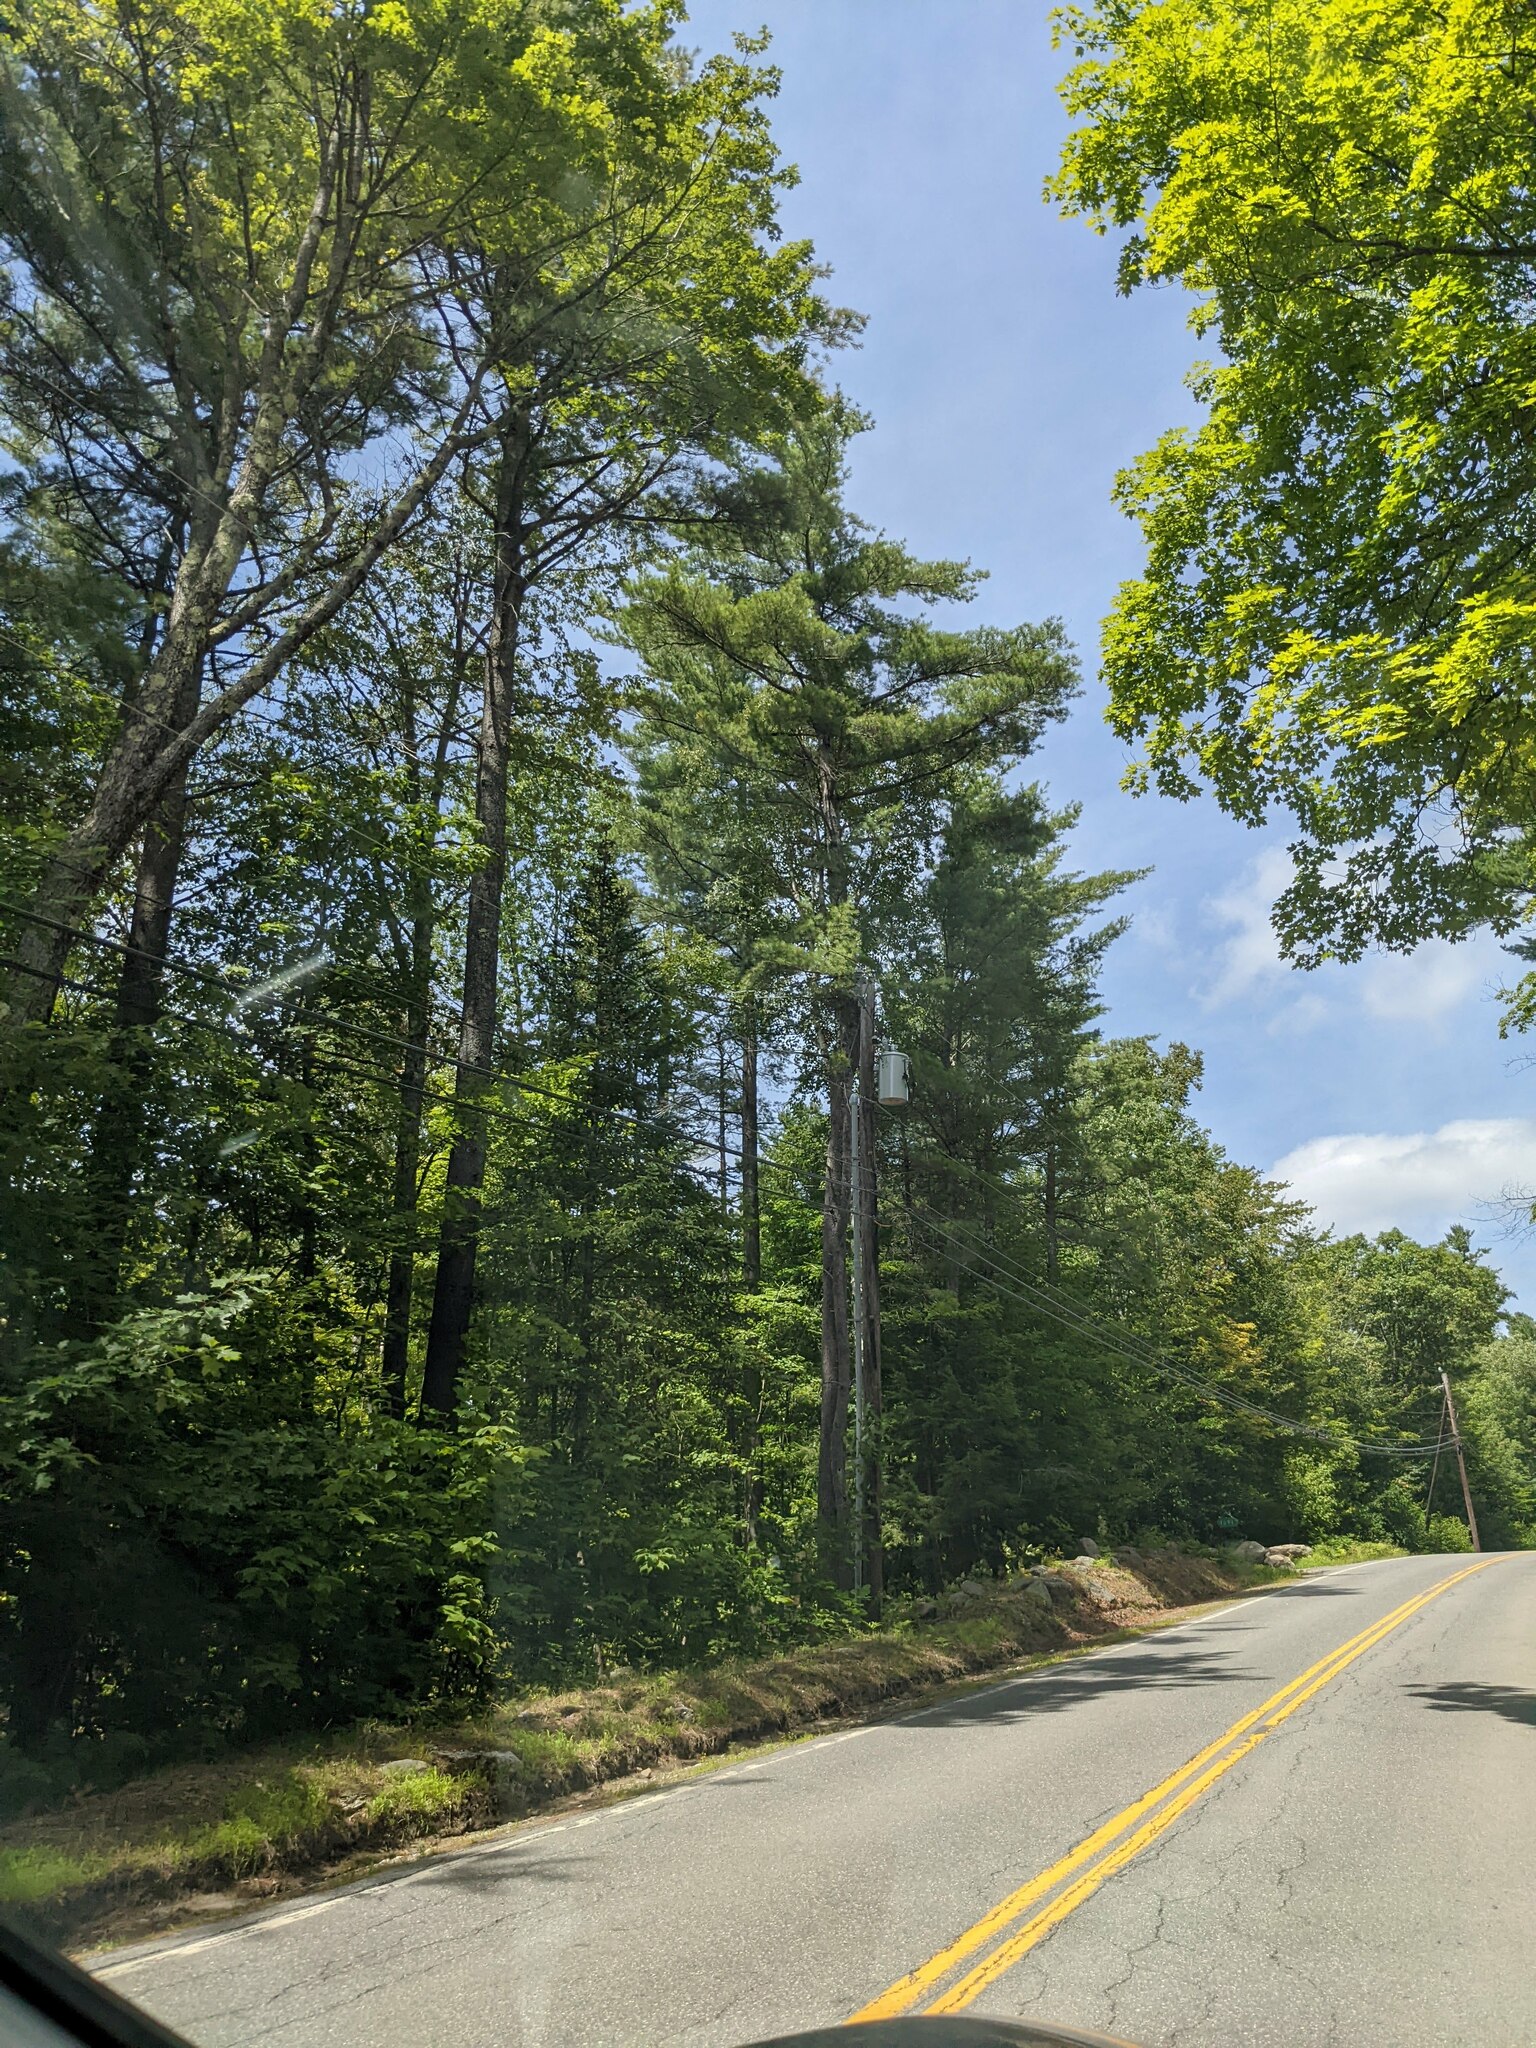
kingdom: Plantae
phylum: Tracheophyta
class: Pinopsida
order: Pinales
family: Pinaceae
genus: Pinus
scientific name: Pinus strobus
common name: Weymouth pine
